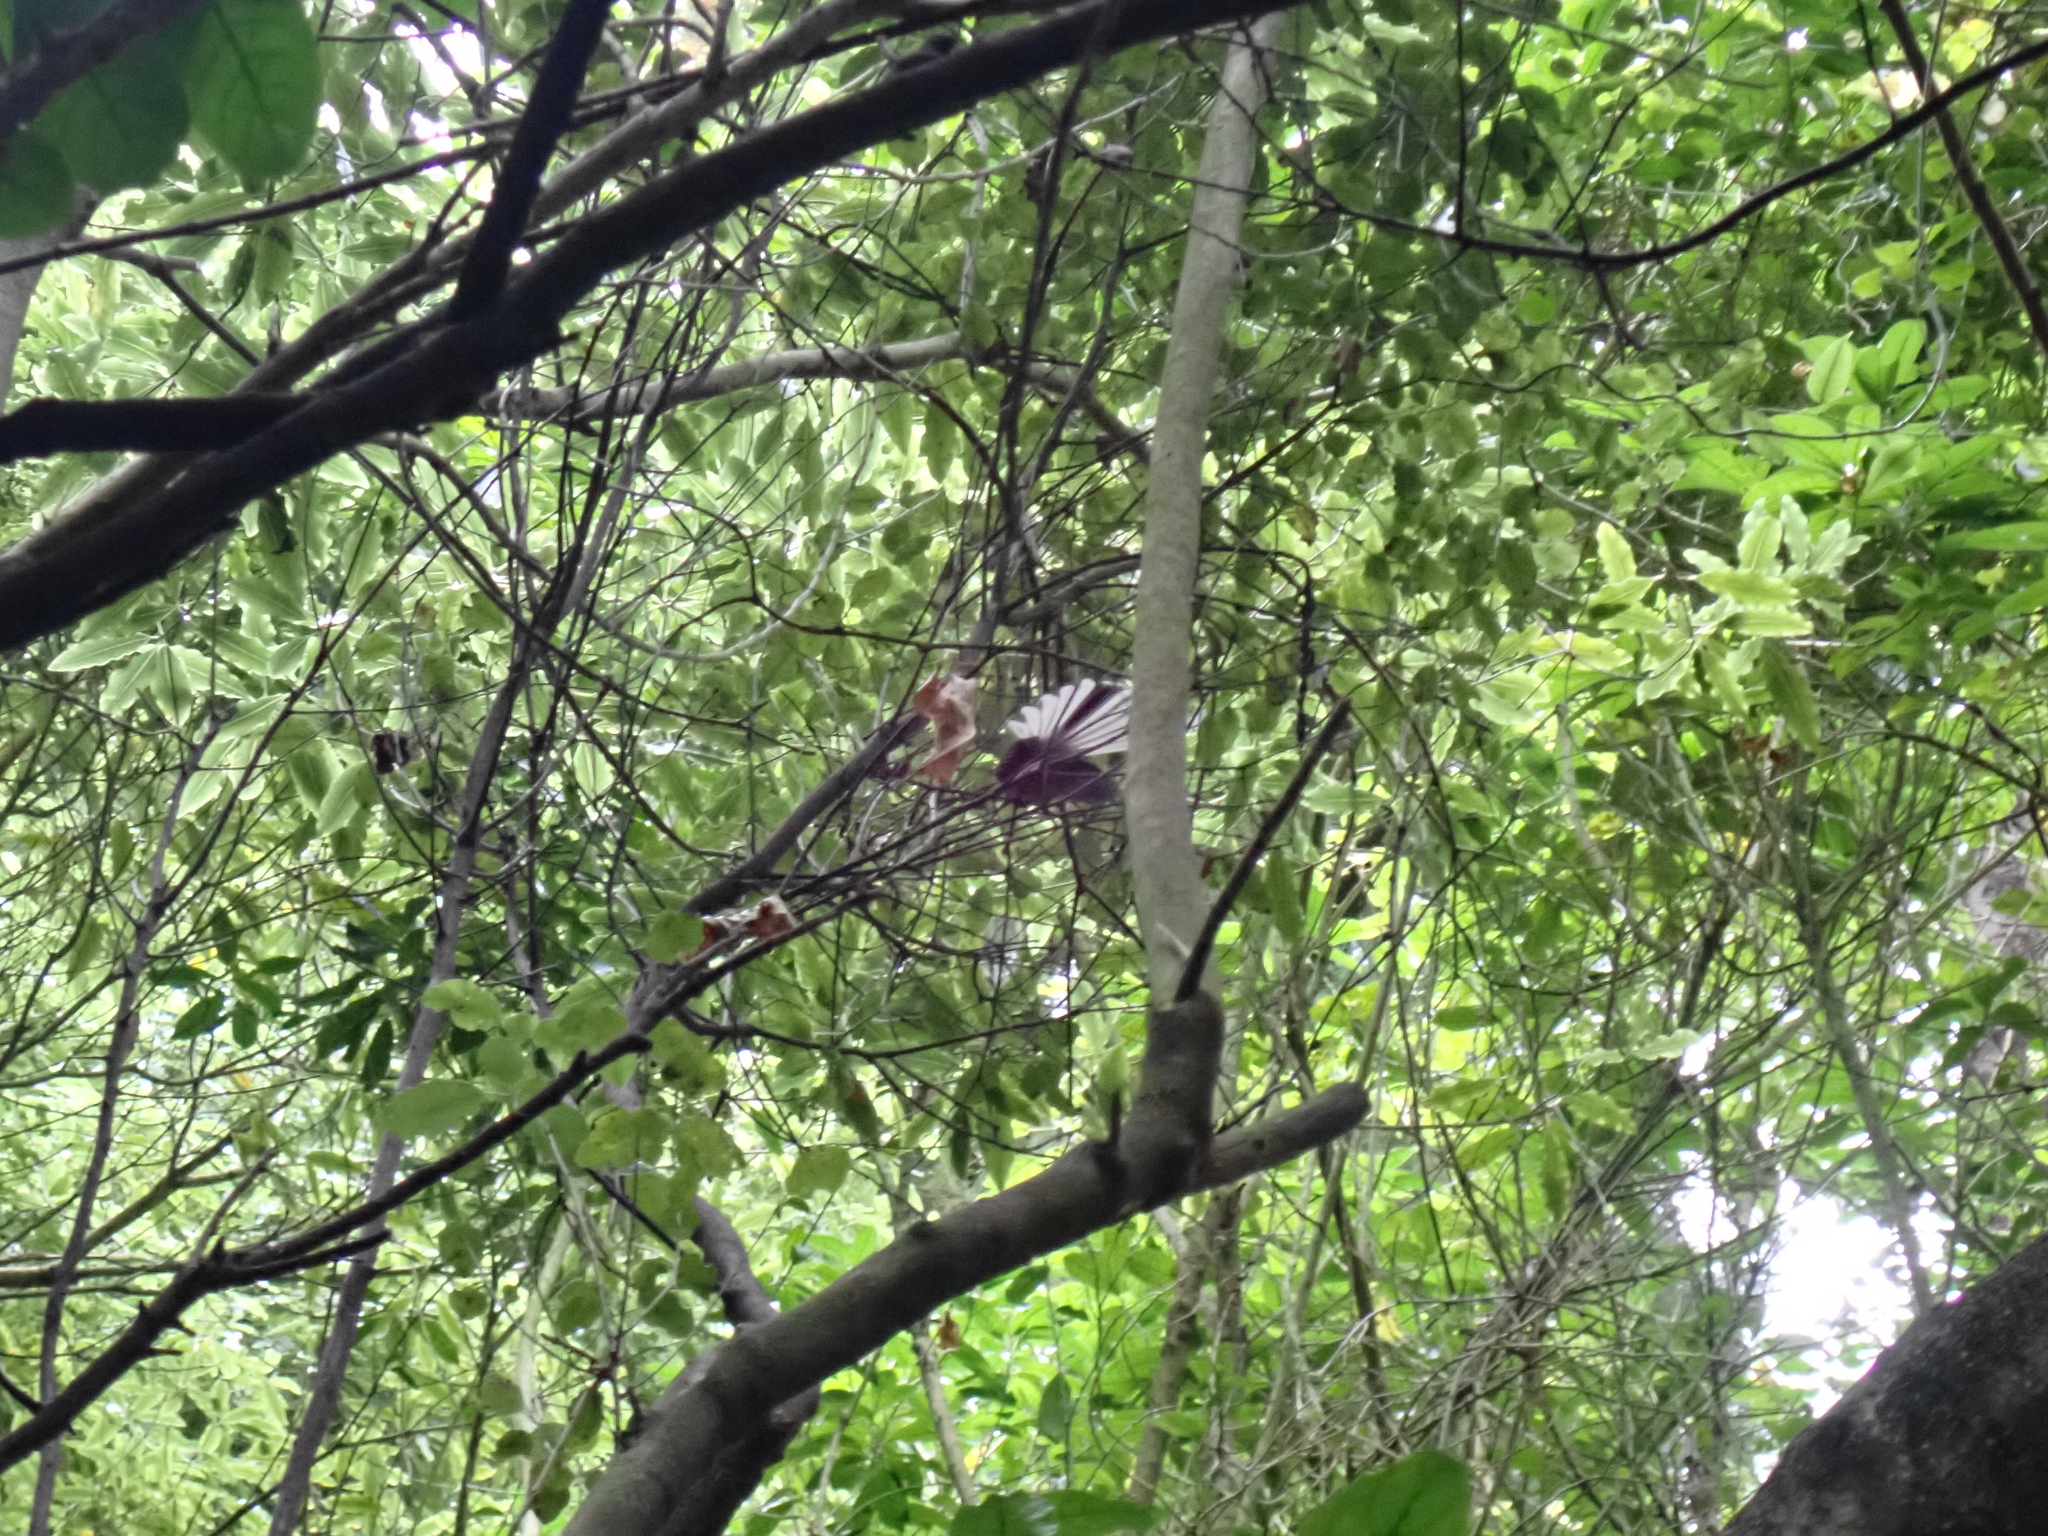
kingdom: Animalia
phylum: Chordata
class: Aves
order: Passeriformes
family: Rhipiduridae
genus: Rhipidura
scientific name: Rhipidura fuliginosa
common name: New zealand fantail
